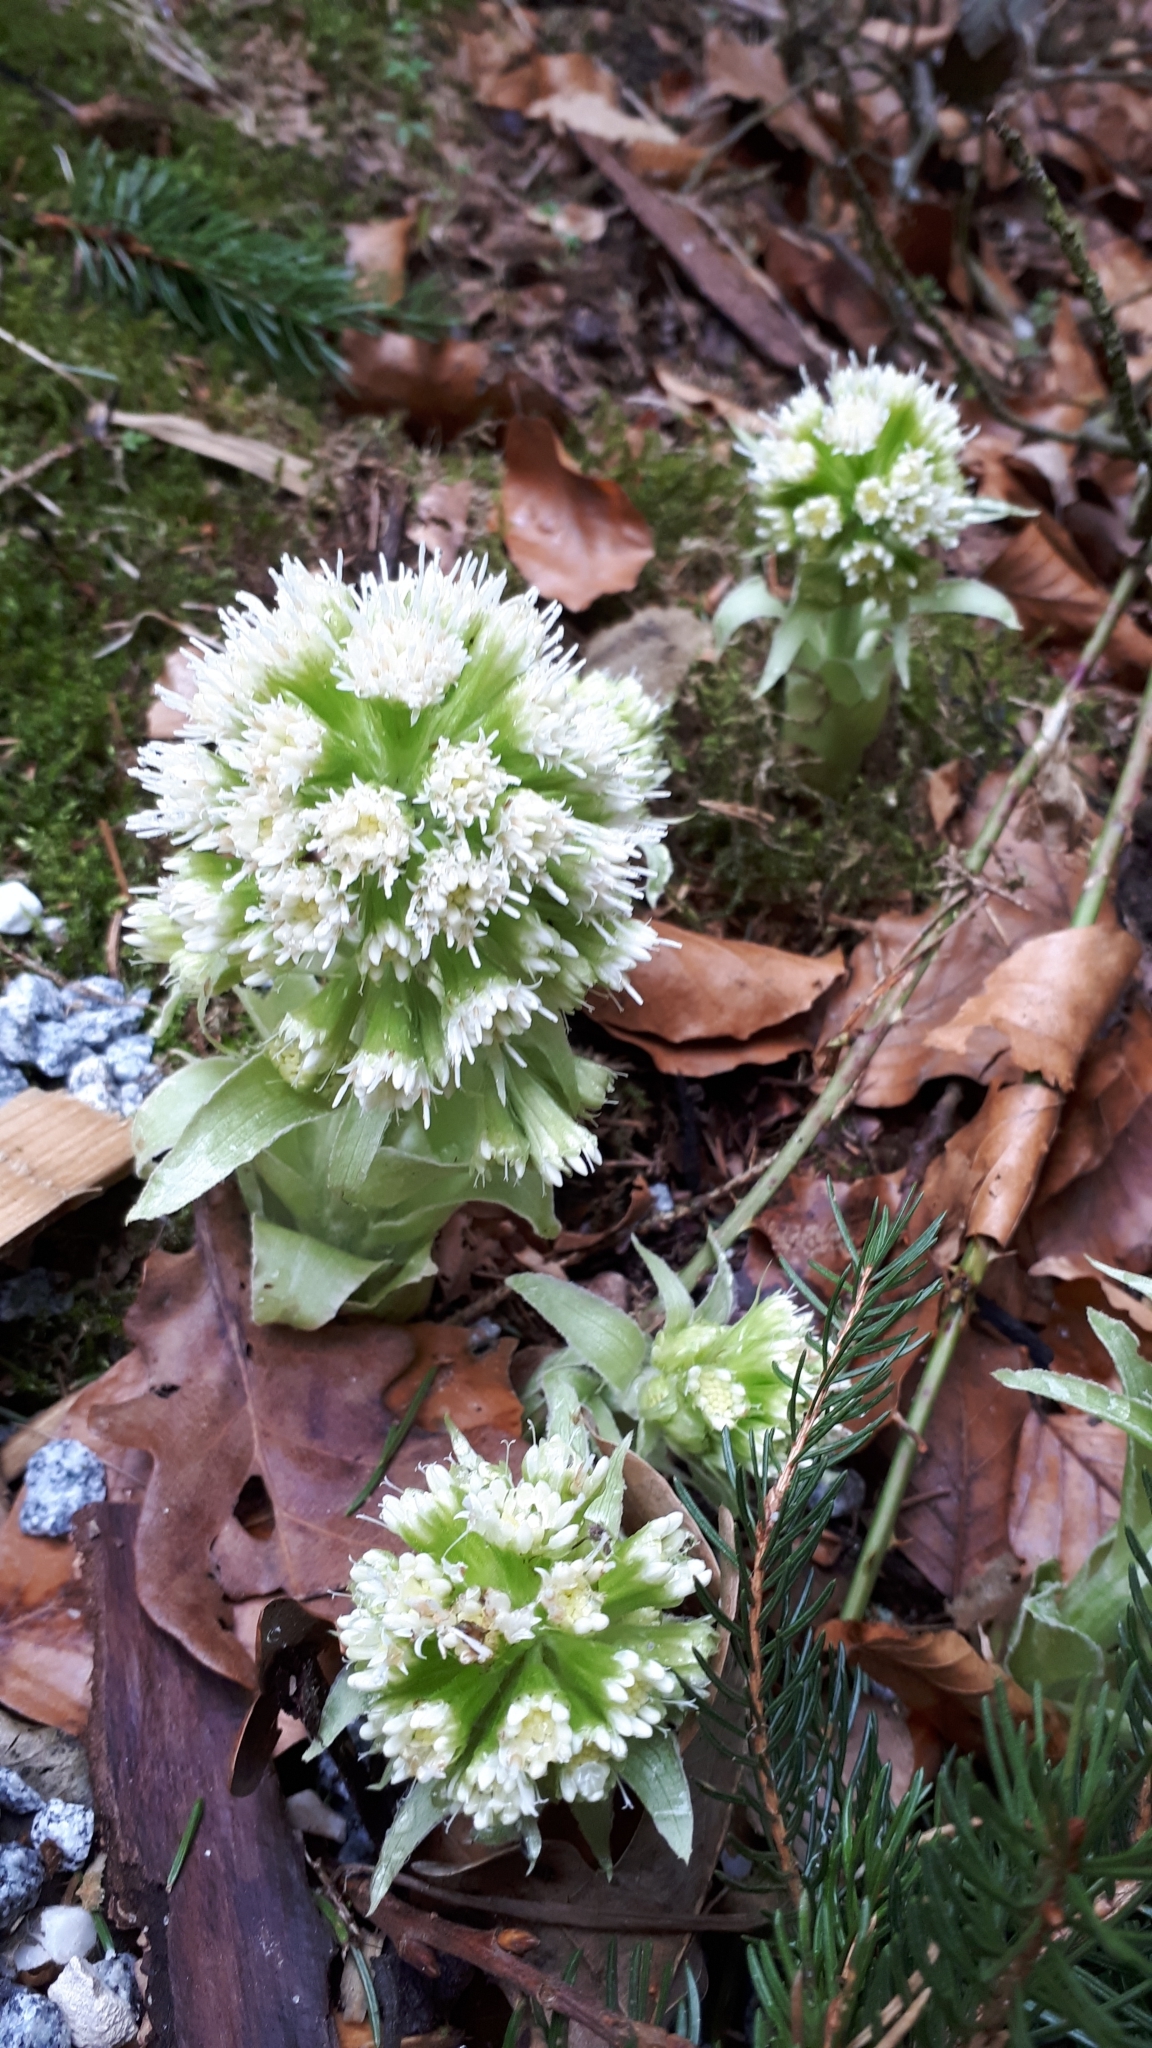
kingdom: Plantae
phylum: Tracheophyta
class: Magnoliopsida
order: Asterales
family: Asteraceae
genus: Petasites
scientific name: Petasites albus
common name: White butterbur
